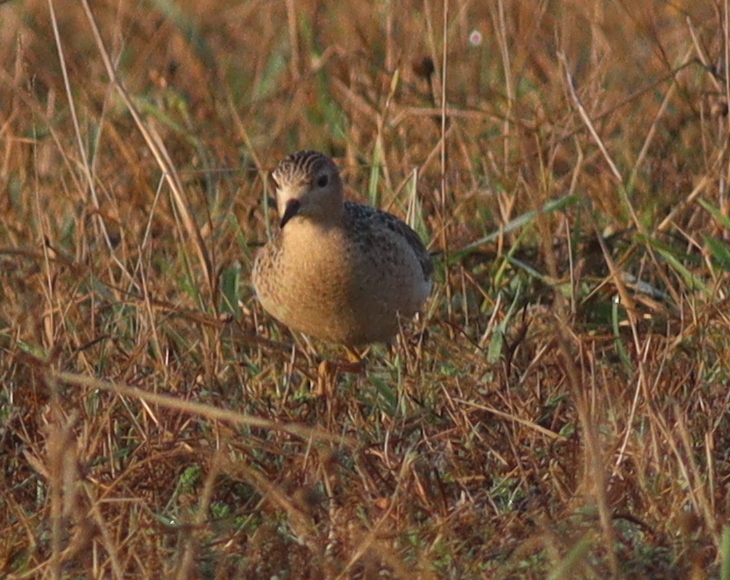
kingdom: Animalia
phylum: Chordata
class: Aves
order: Charadriiformes
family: Scolopacidae
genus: Calidris
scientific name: Calidris subruficollis
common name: Buff-breasted sandpiper
